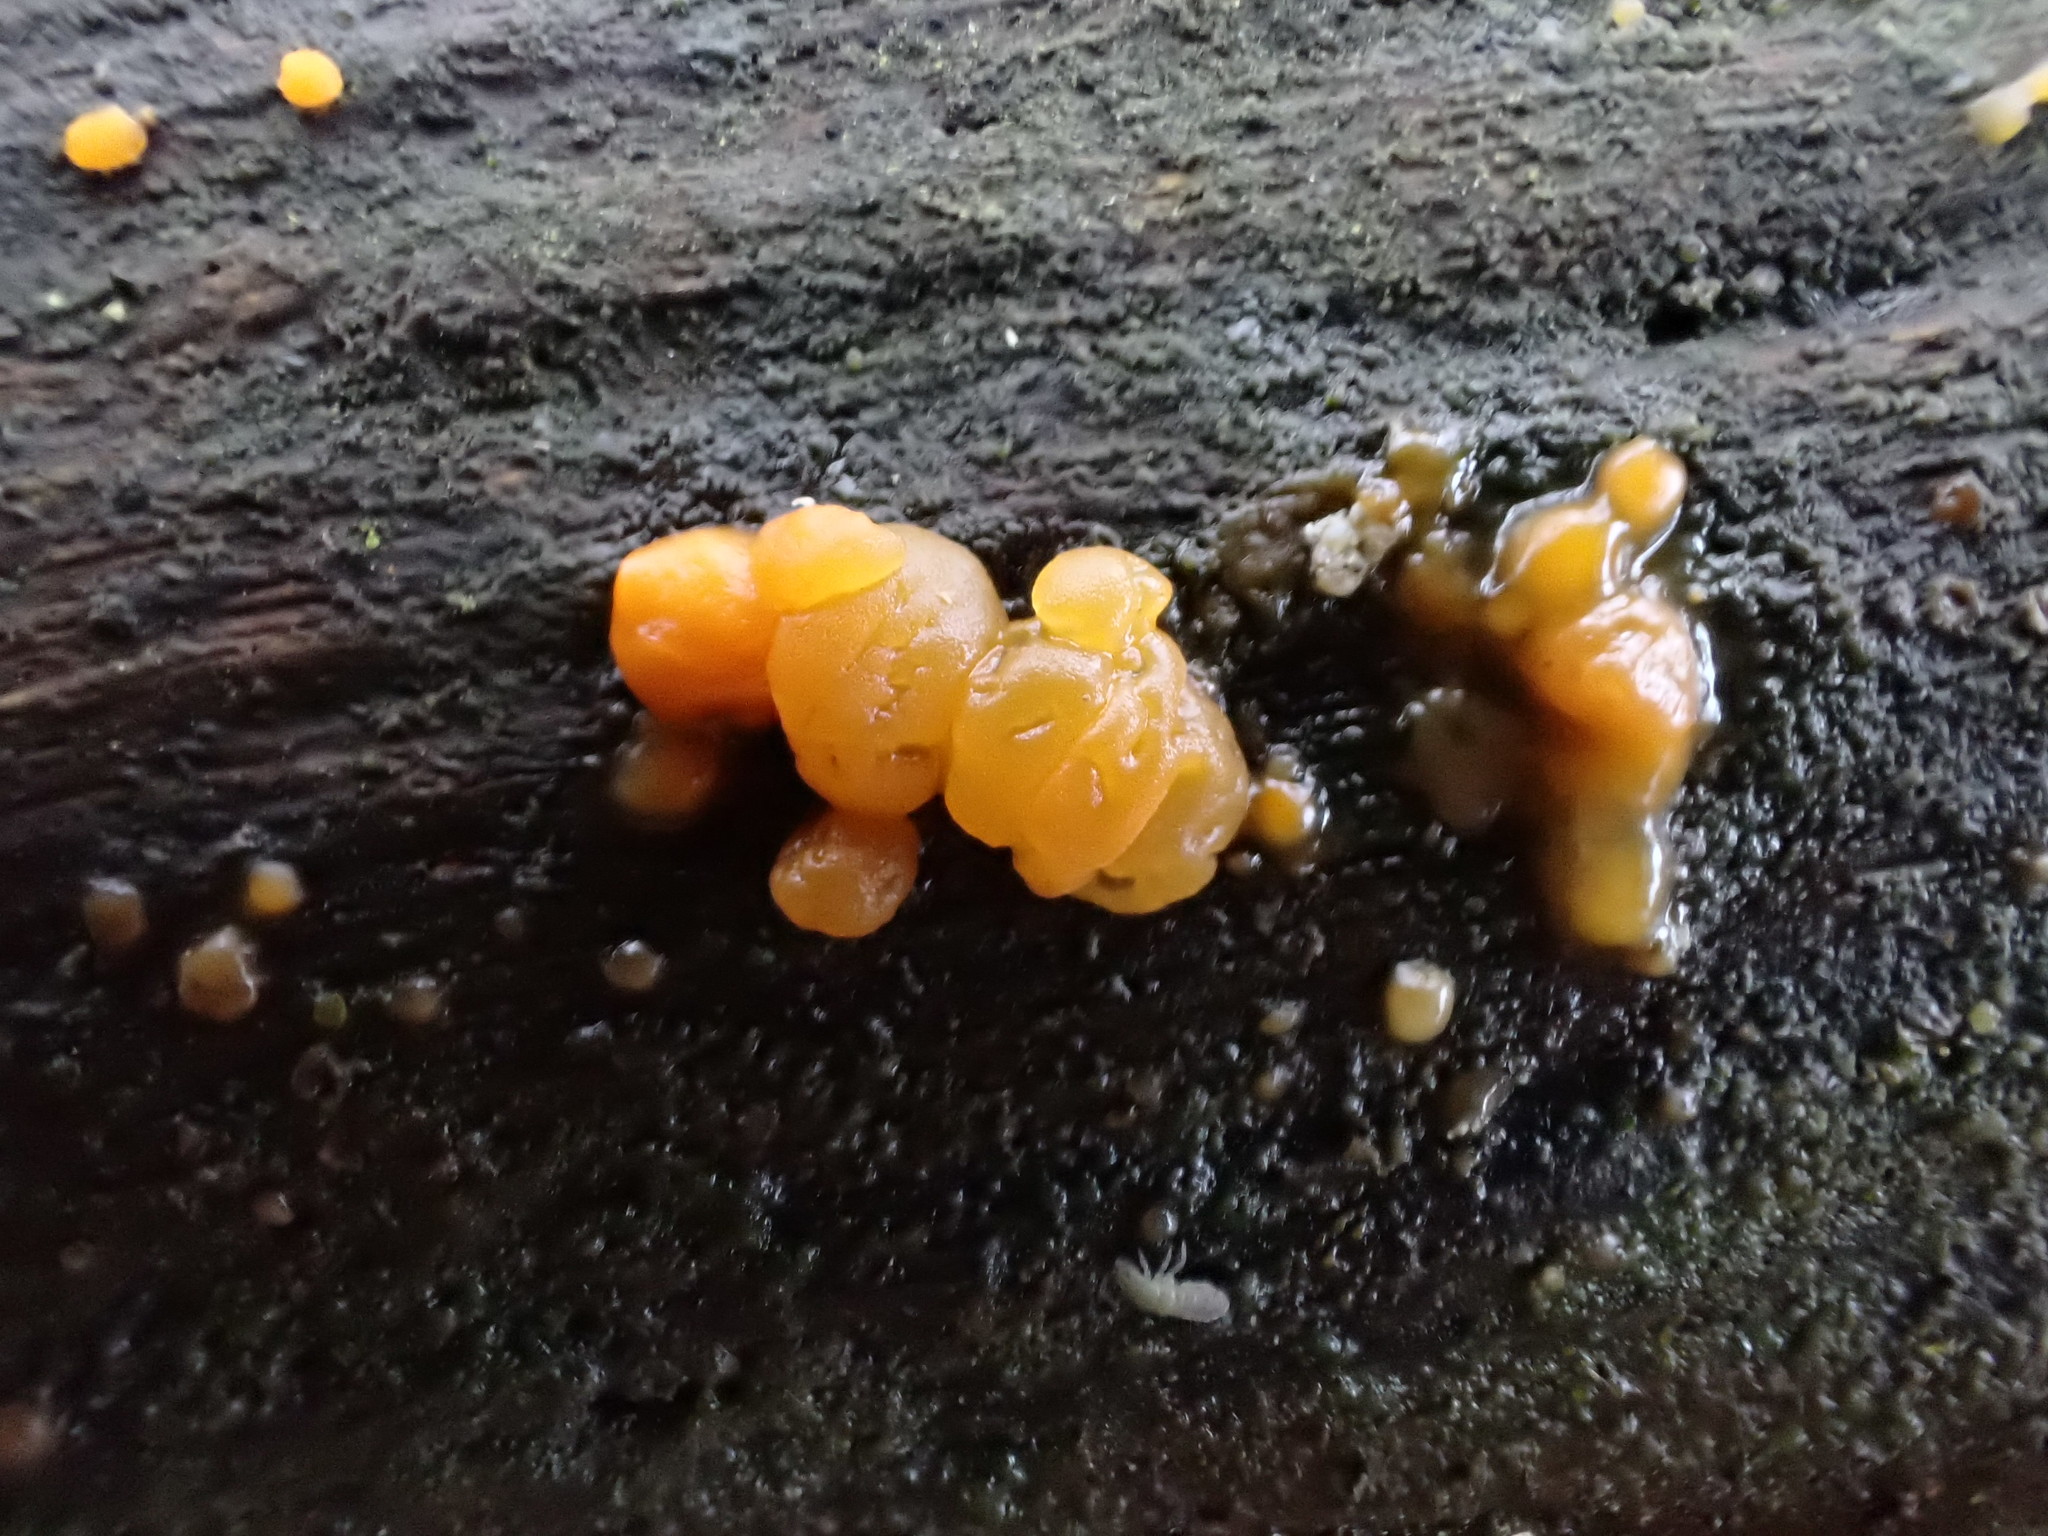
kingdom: Fungi
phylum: Basidiomycota
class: Dacrymycetes
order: Dacrymycetales
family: Dacrymycetaceae
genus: Dacrymyces
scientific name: Dacrymyces stillatus
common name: Common jelly spot
